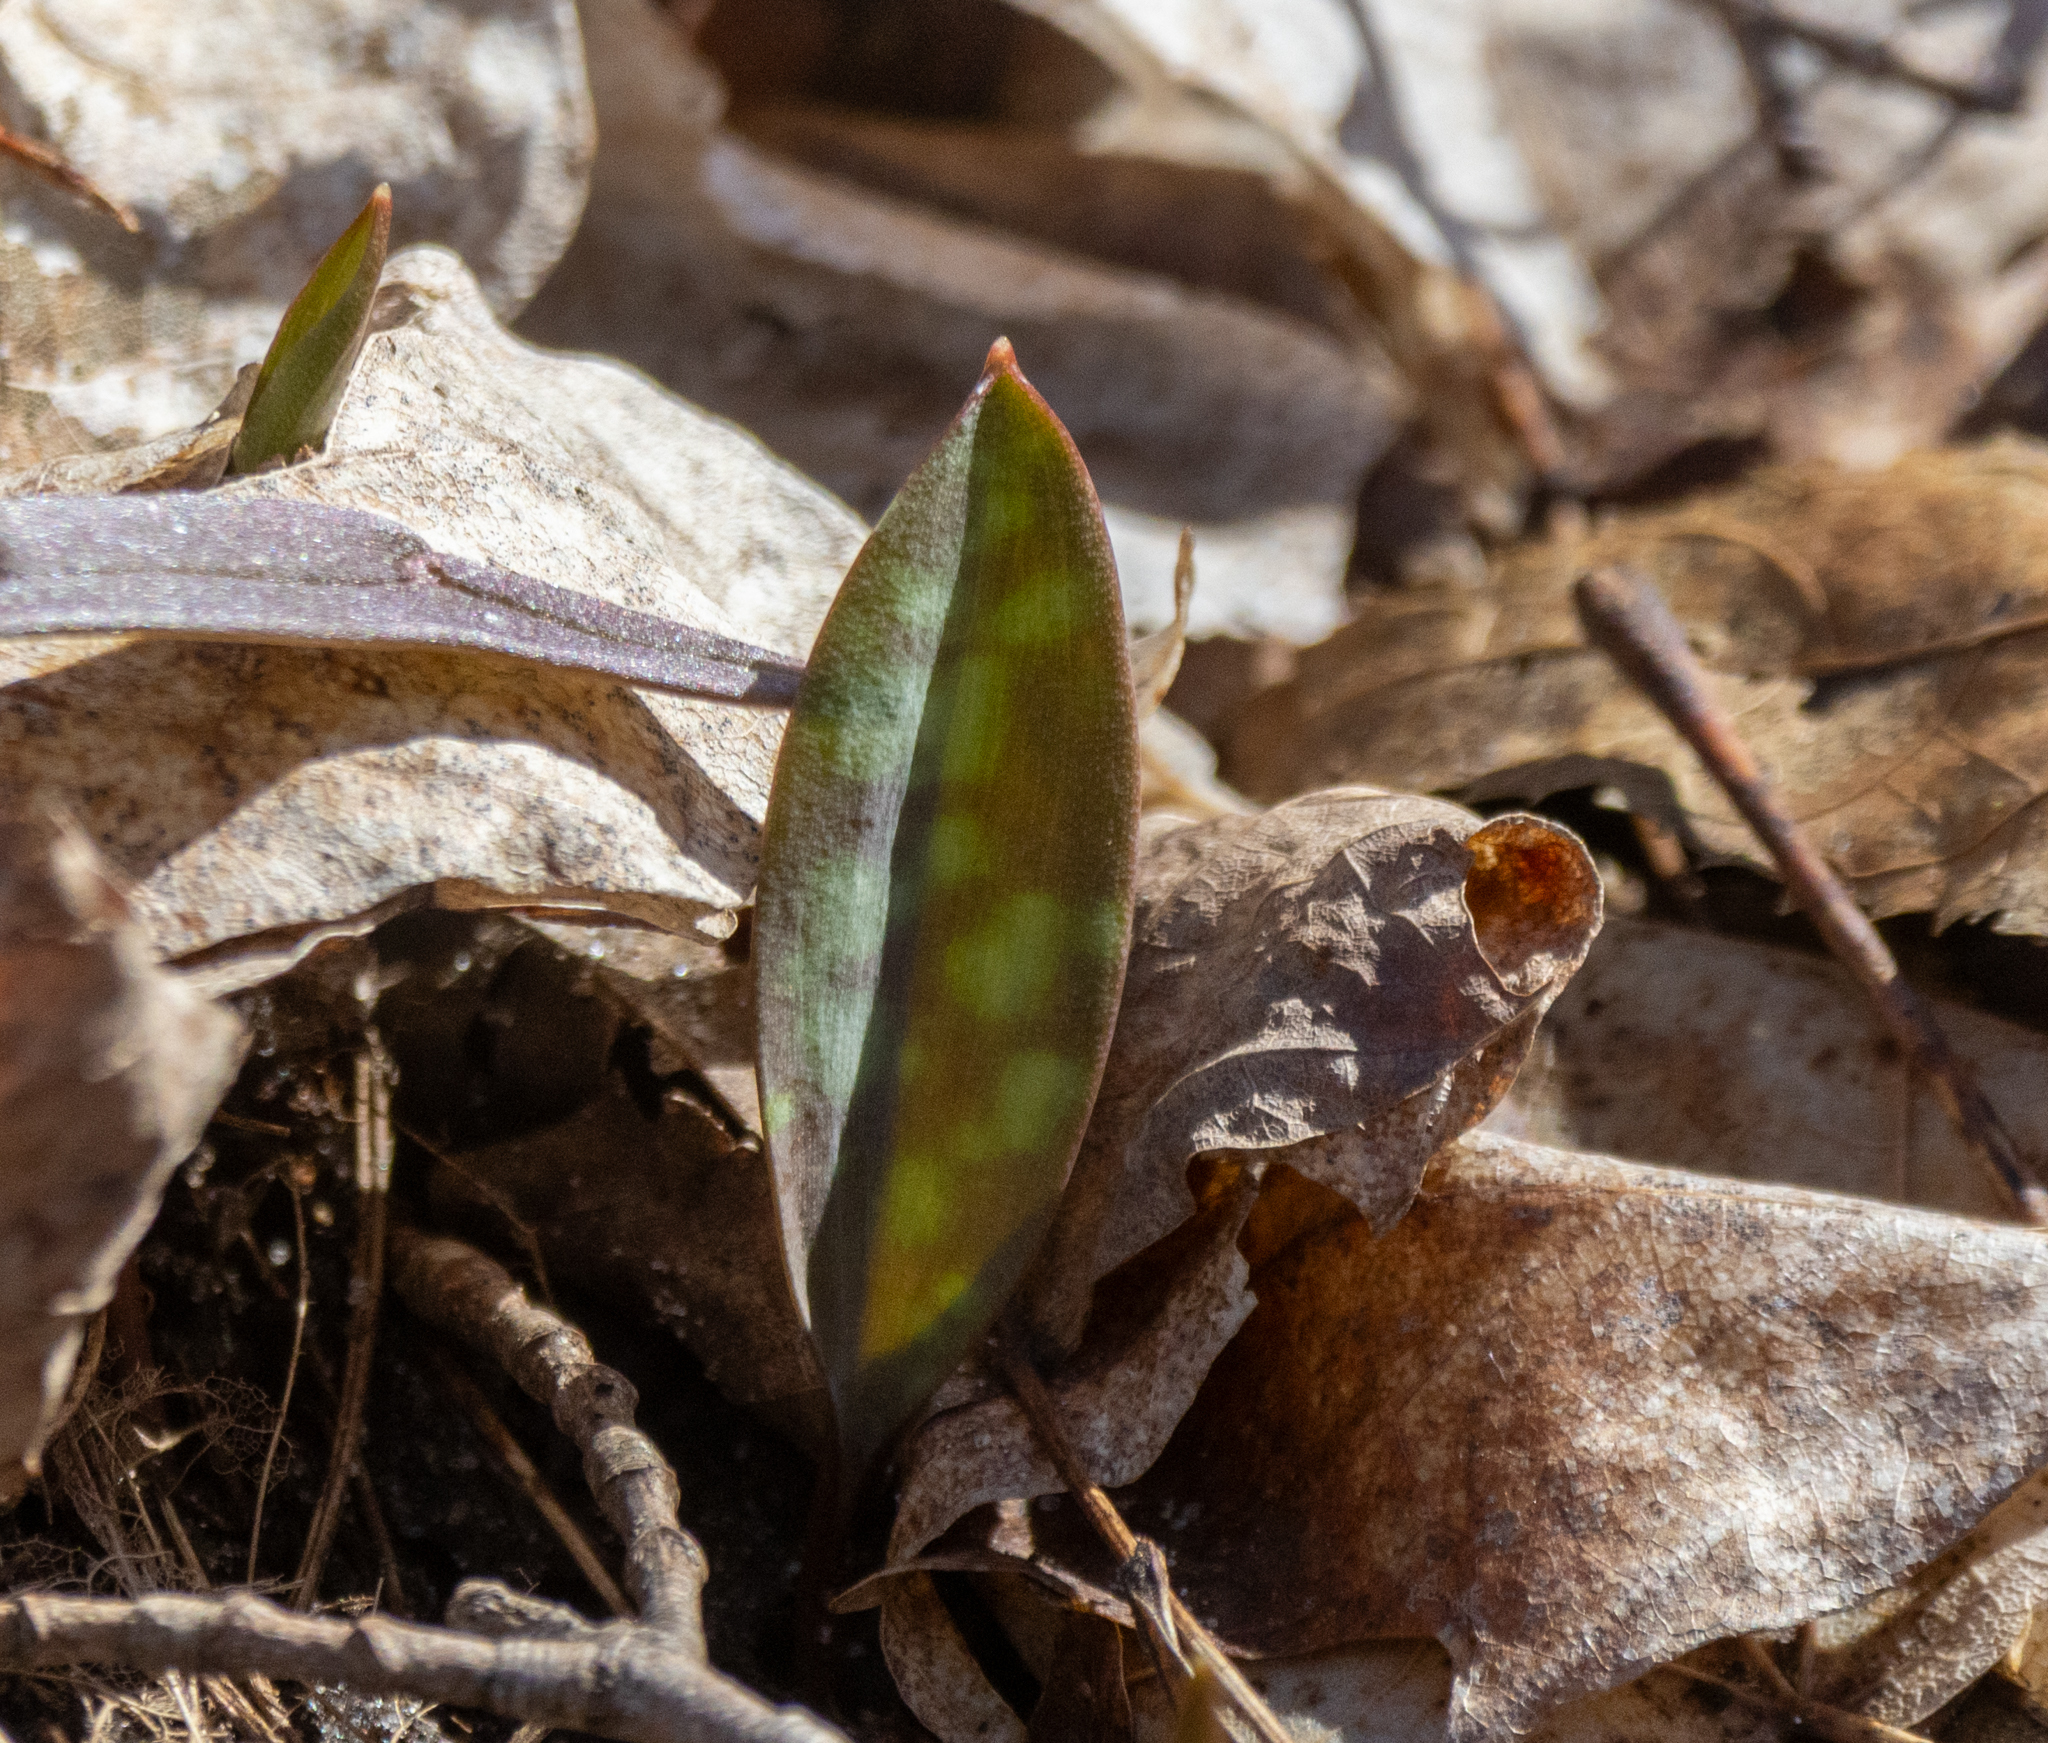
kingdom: Plantae
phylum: Tracheophyta
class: Liliopsida
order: Liliales
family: Liliaceae
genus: Erythronium
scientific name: Erythronium americanum
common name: Yellow adder's-tongue
